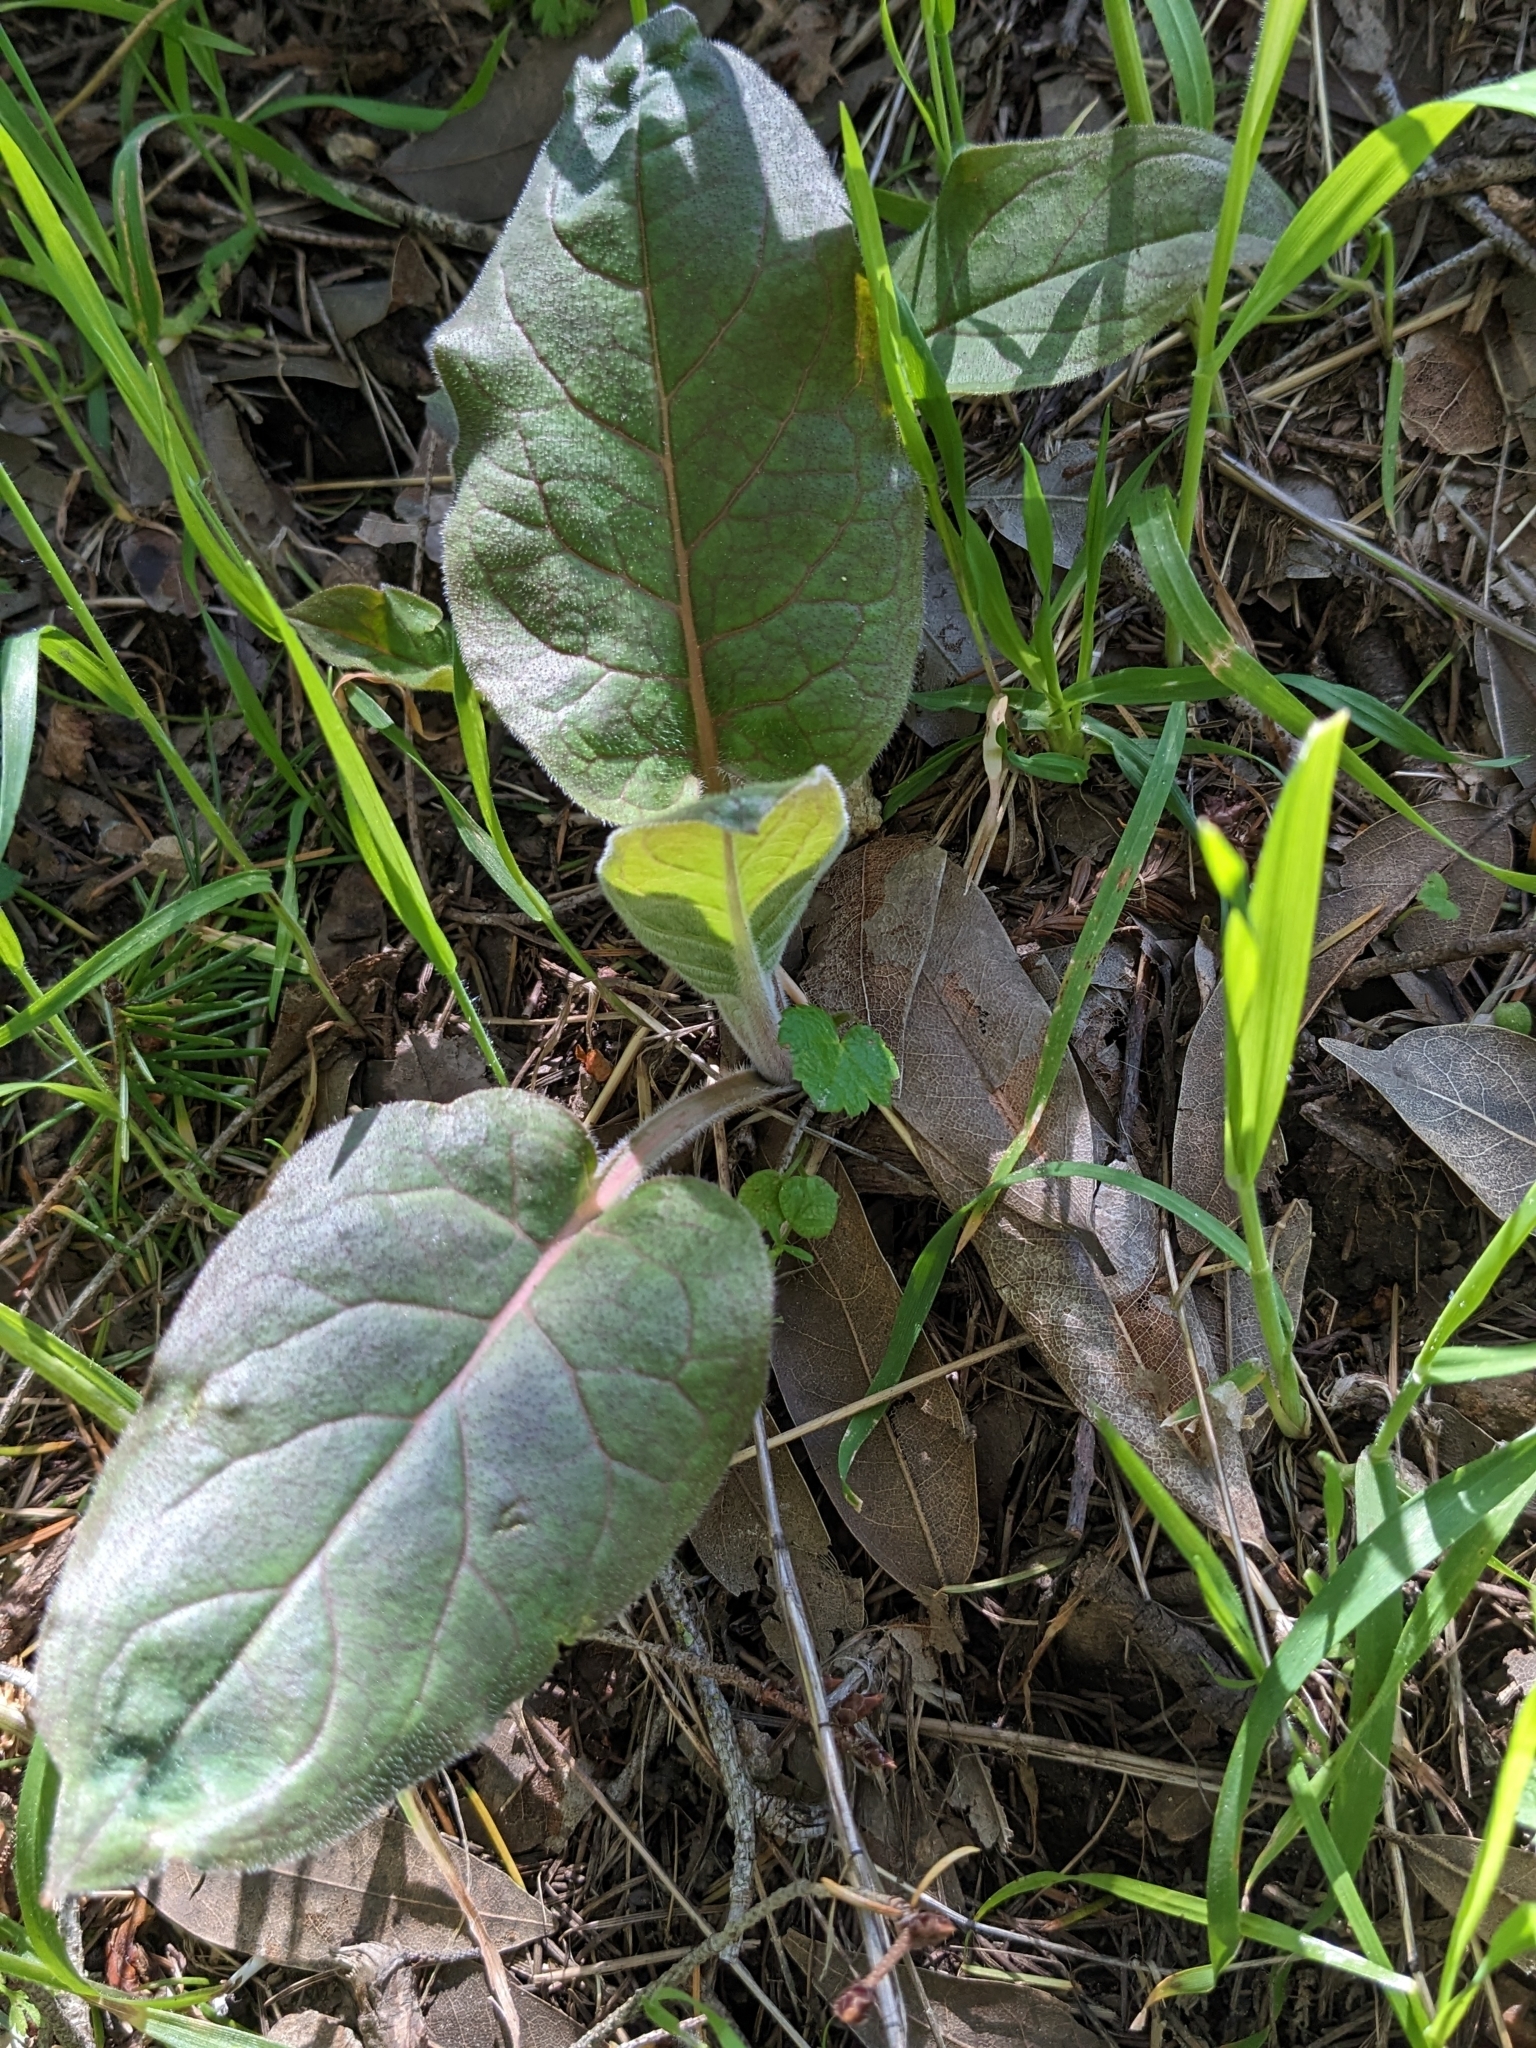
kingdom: Plantae
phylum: Tracheophyta
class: Magnoliopsida
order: Boraginales
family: Boraginaceae
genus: Adelinia
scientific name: Adelinia grande
